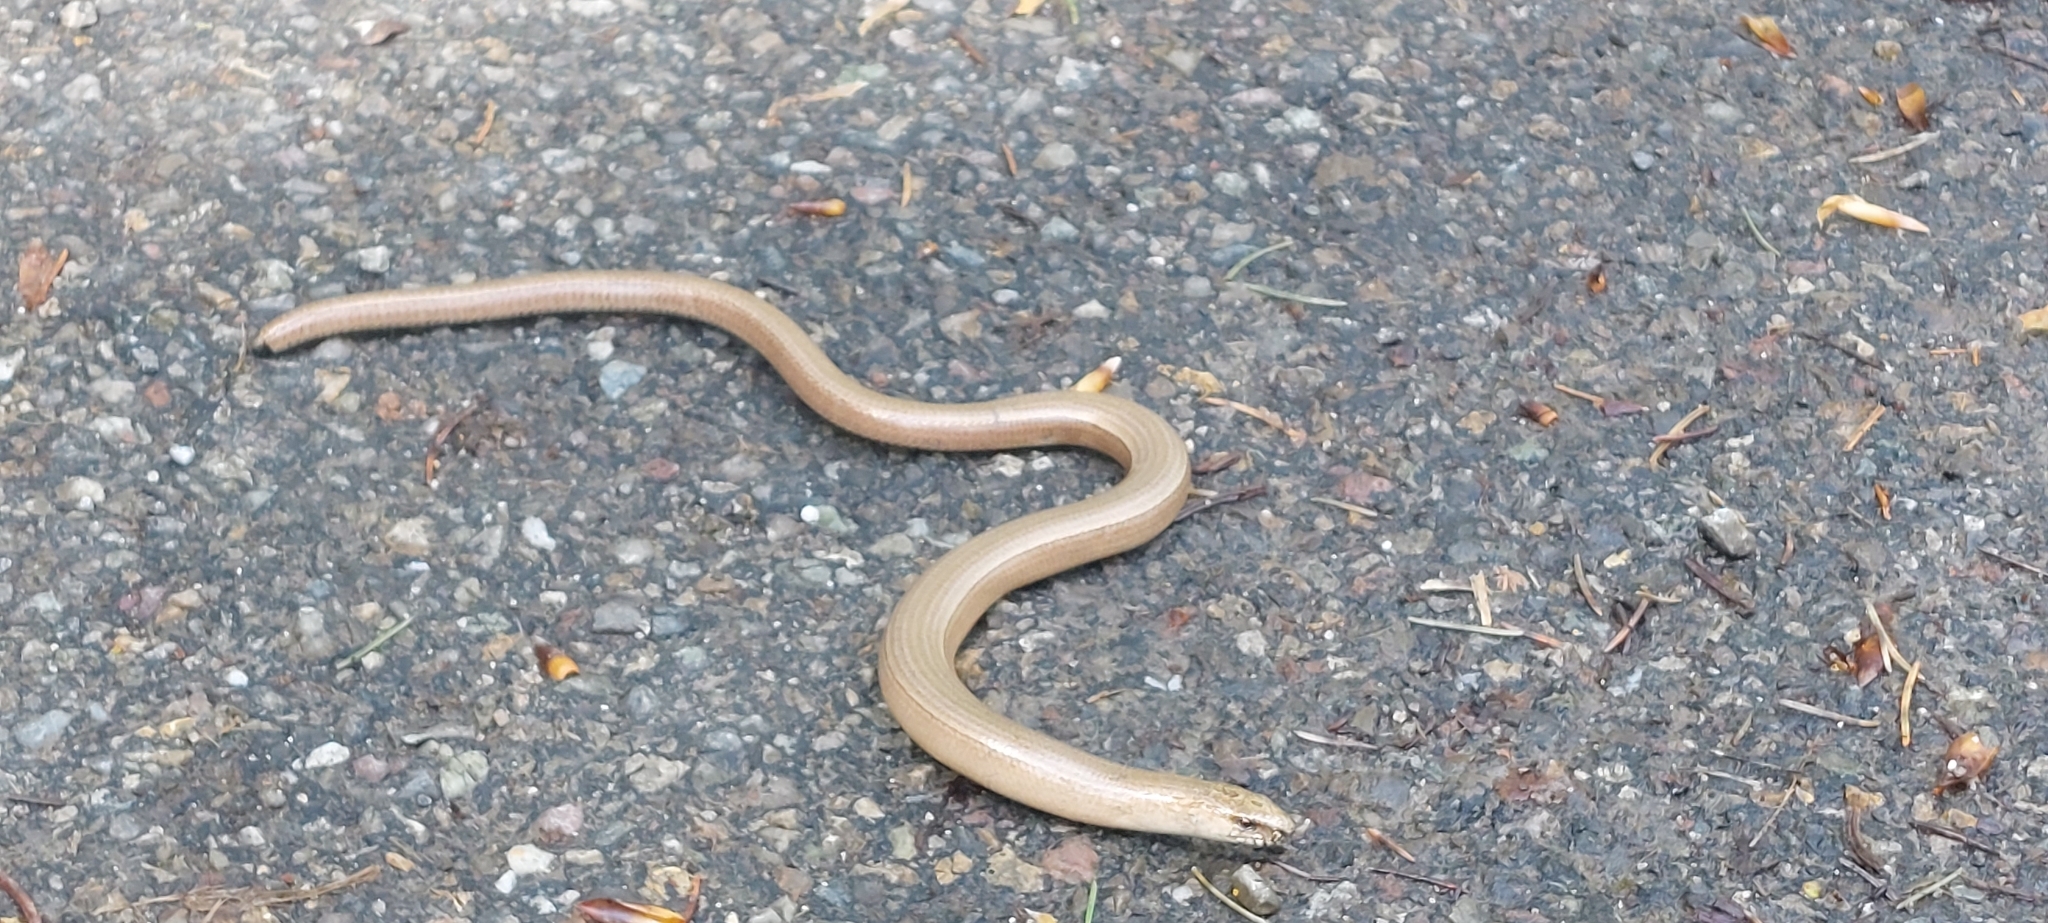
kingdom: Animalia
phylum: Chordata
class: Squamata
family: Anguidae
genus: Anguis
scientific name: Anguis fragilis
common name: Slow worm
